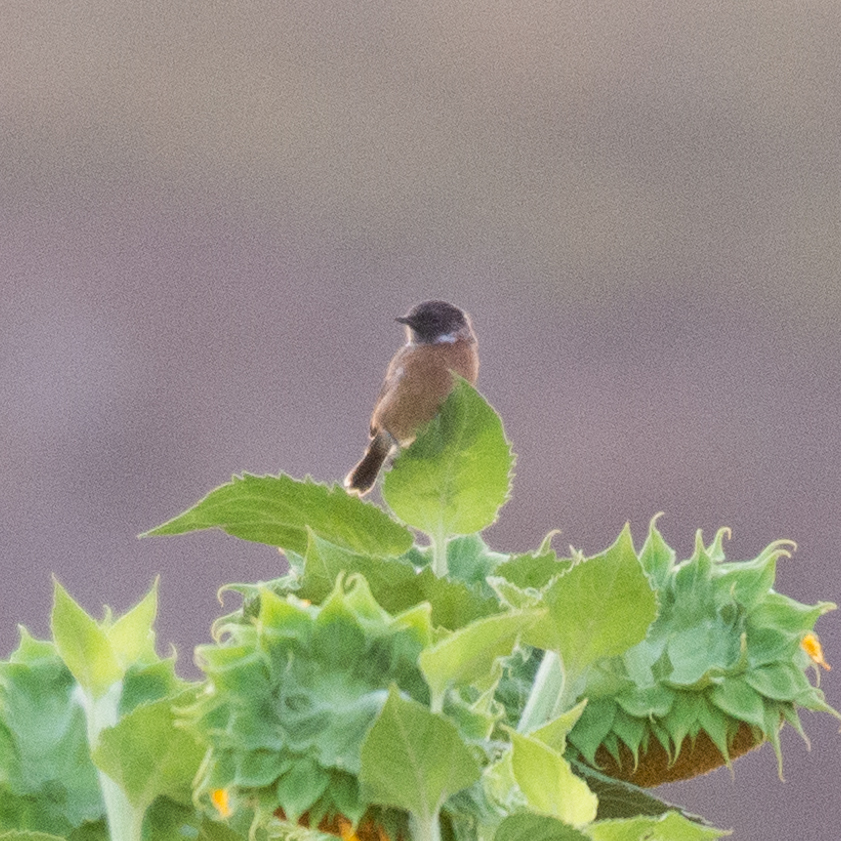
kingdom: Animalia
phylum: Chordata
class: Aves
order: Passeriformes
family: Muscicapidae
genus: Saxicola
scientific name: Saxicola rubicola
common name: European stonechat
